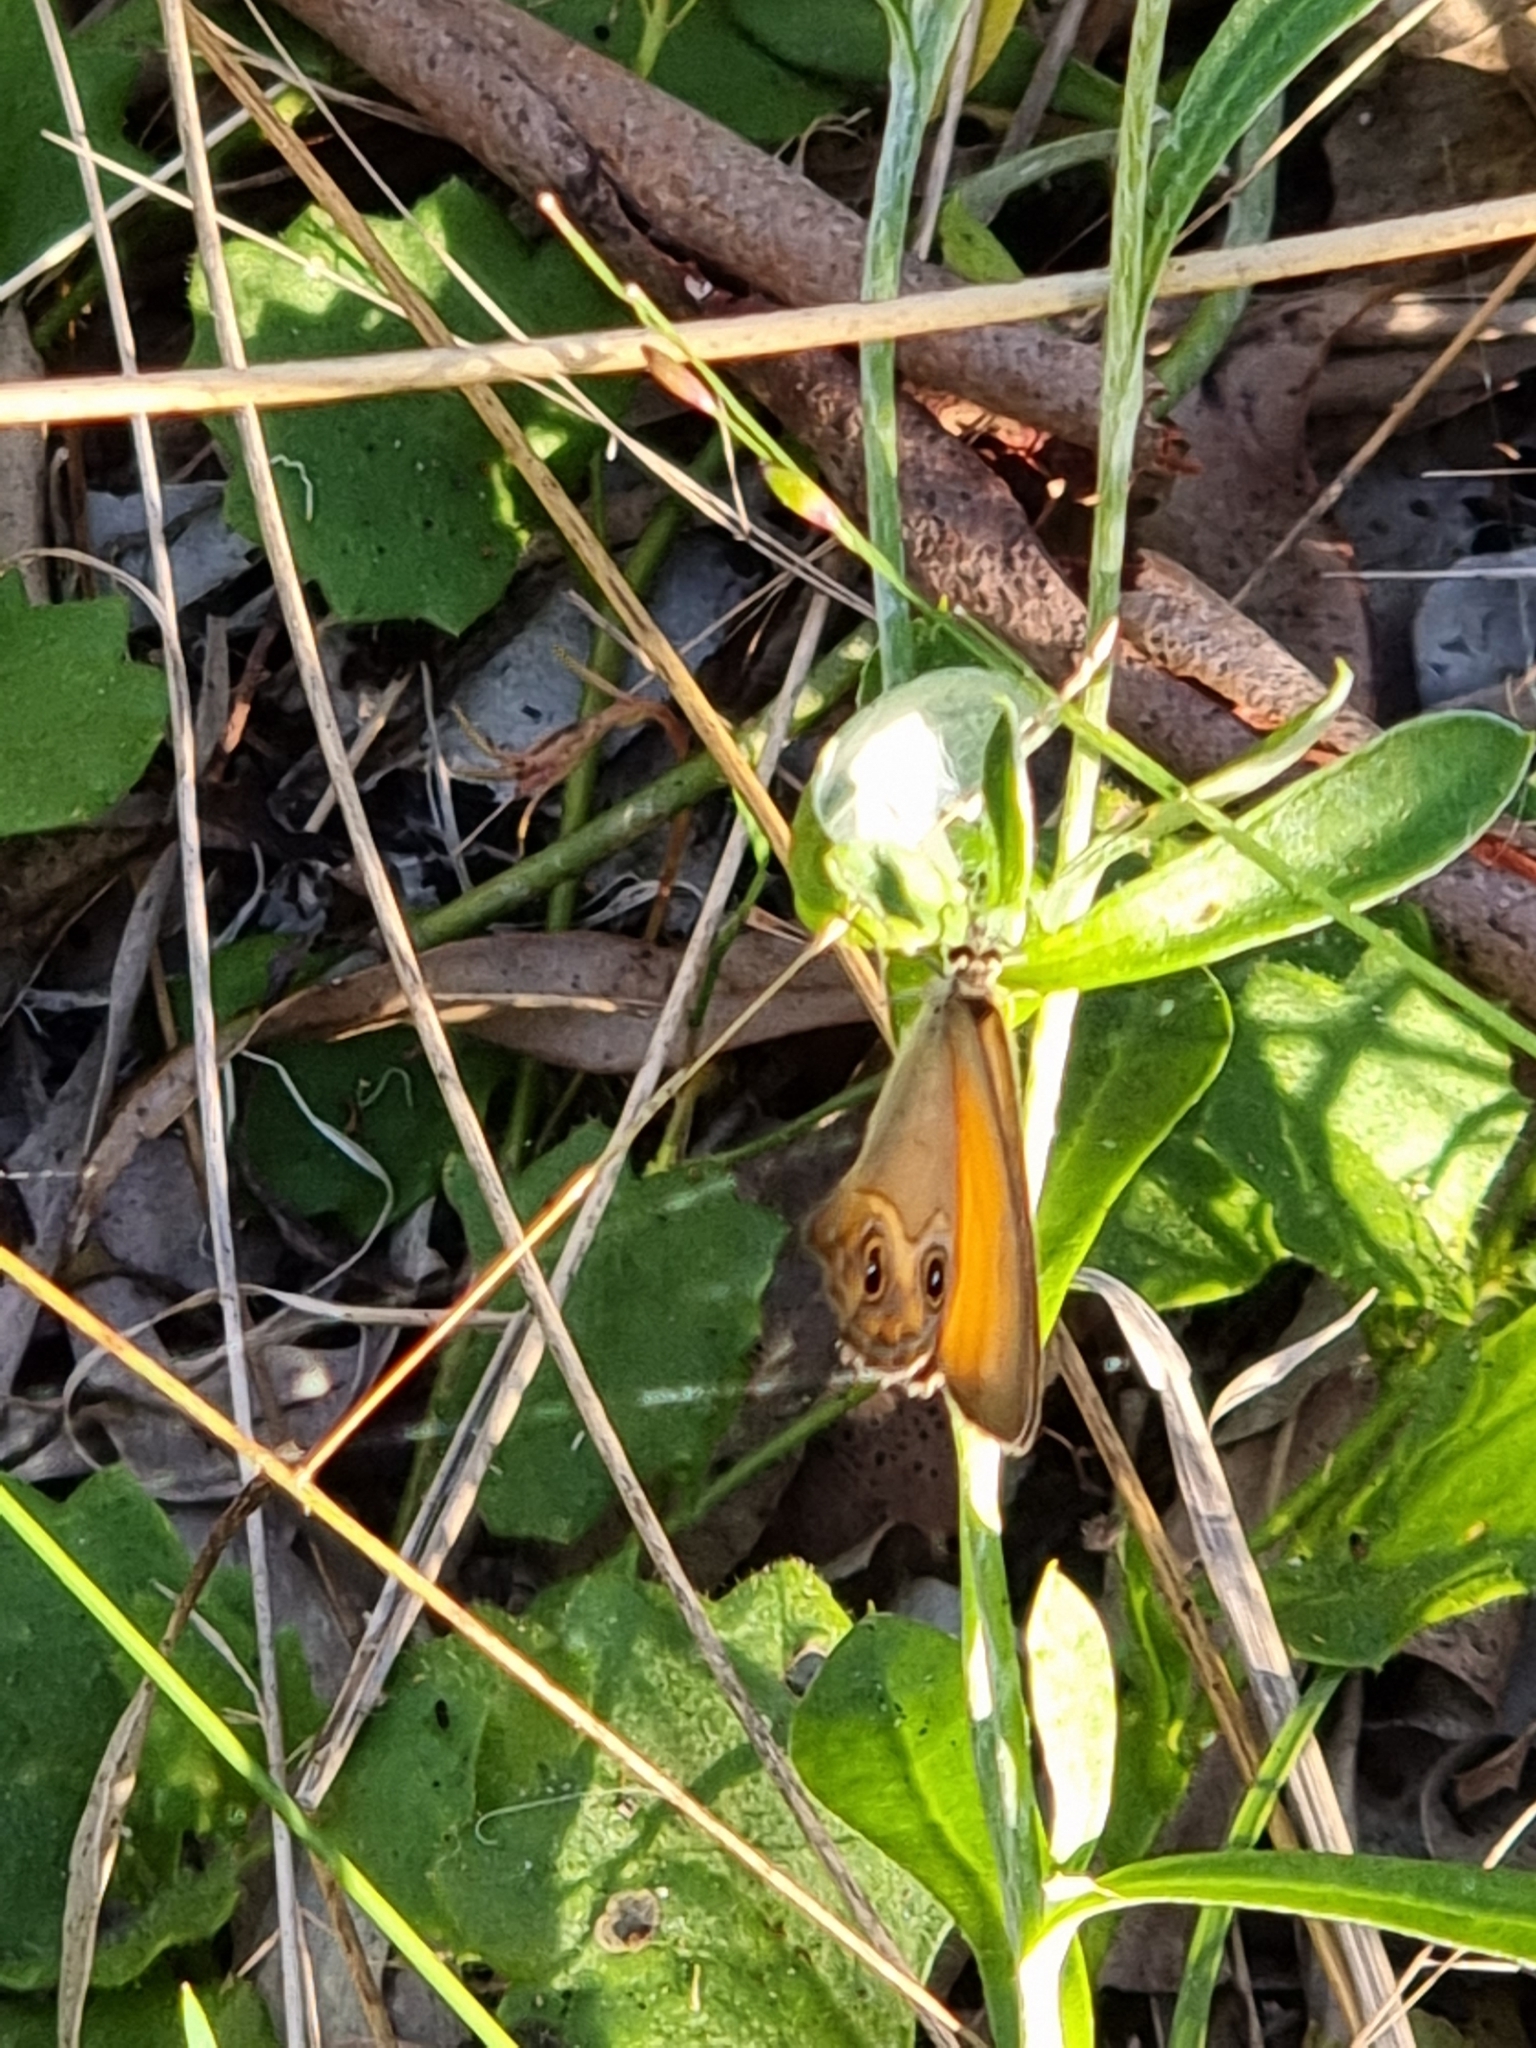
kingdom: Animalia
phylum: Arthropoda
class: Insecta
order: Lepidoptera
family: Nymphalidae
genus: Hypocysta
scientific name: Hypocysta adiante
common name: Orange ringlet
